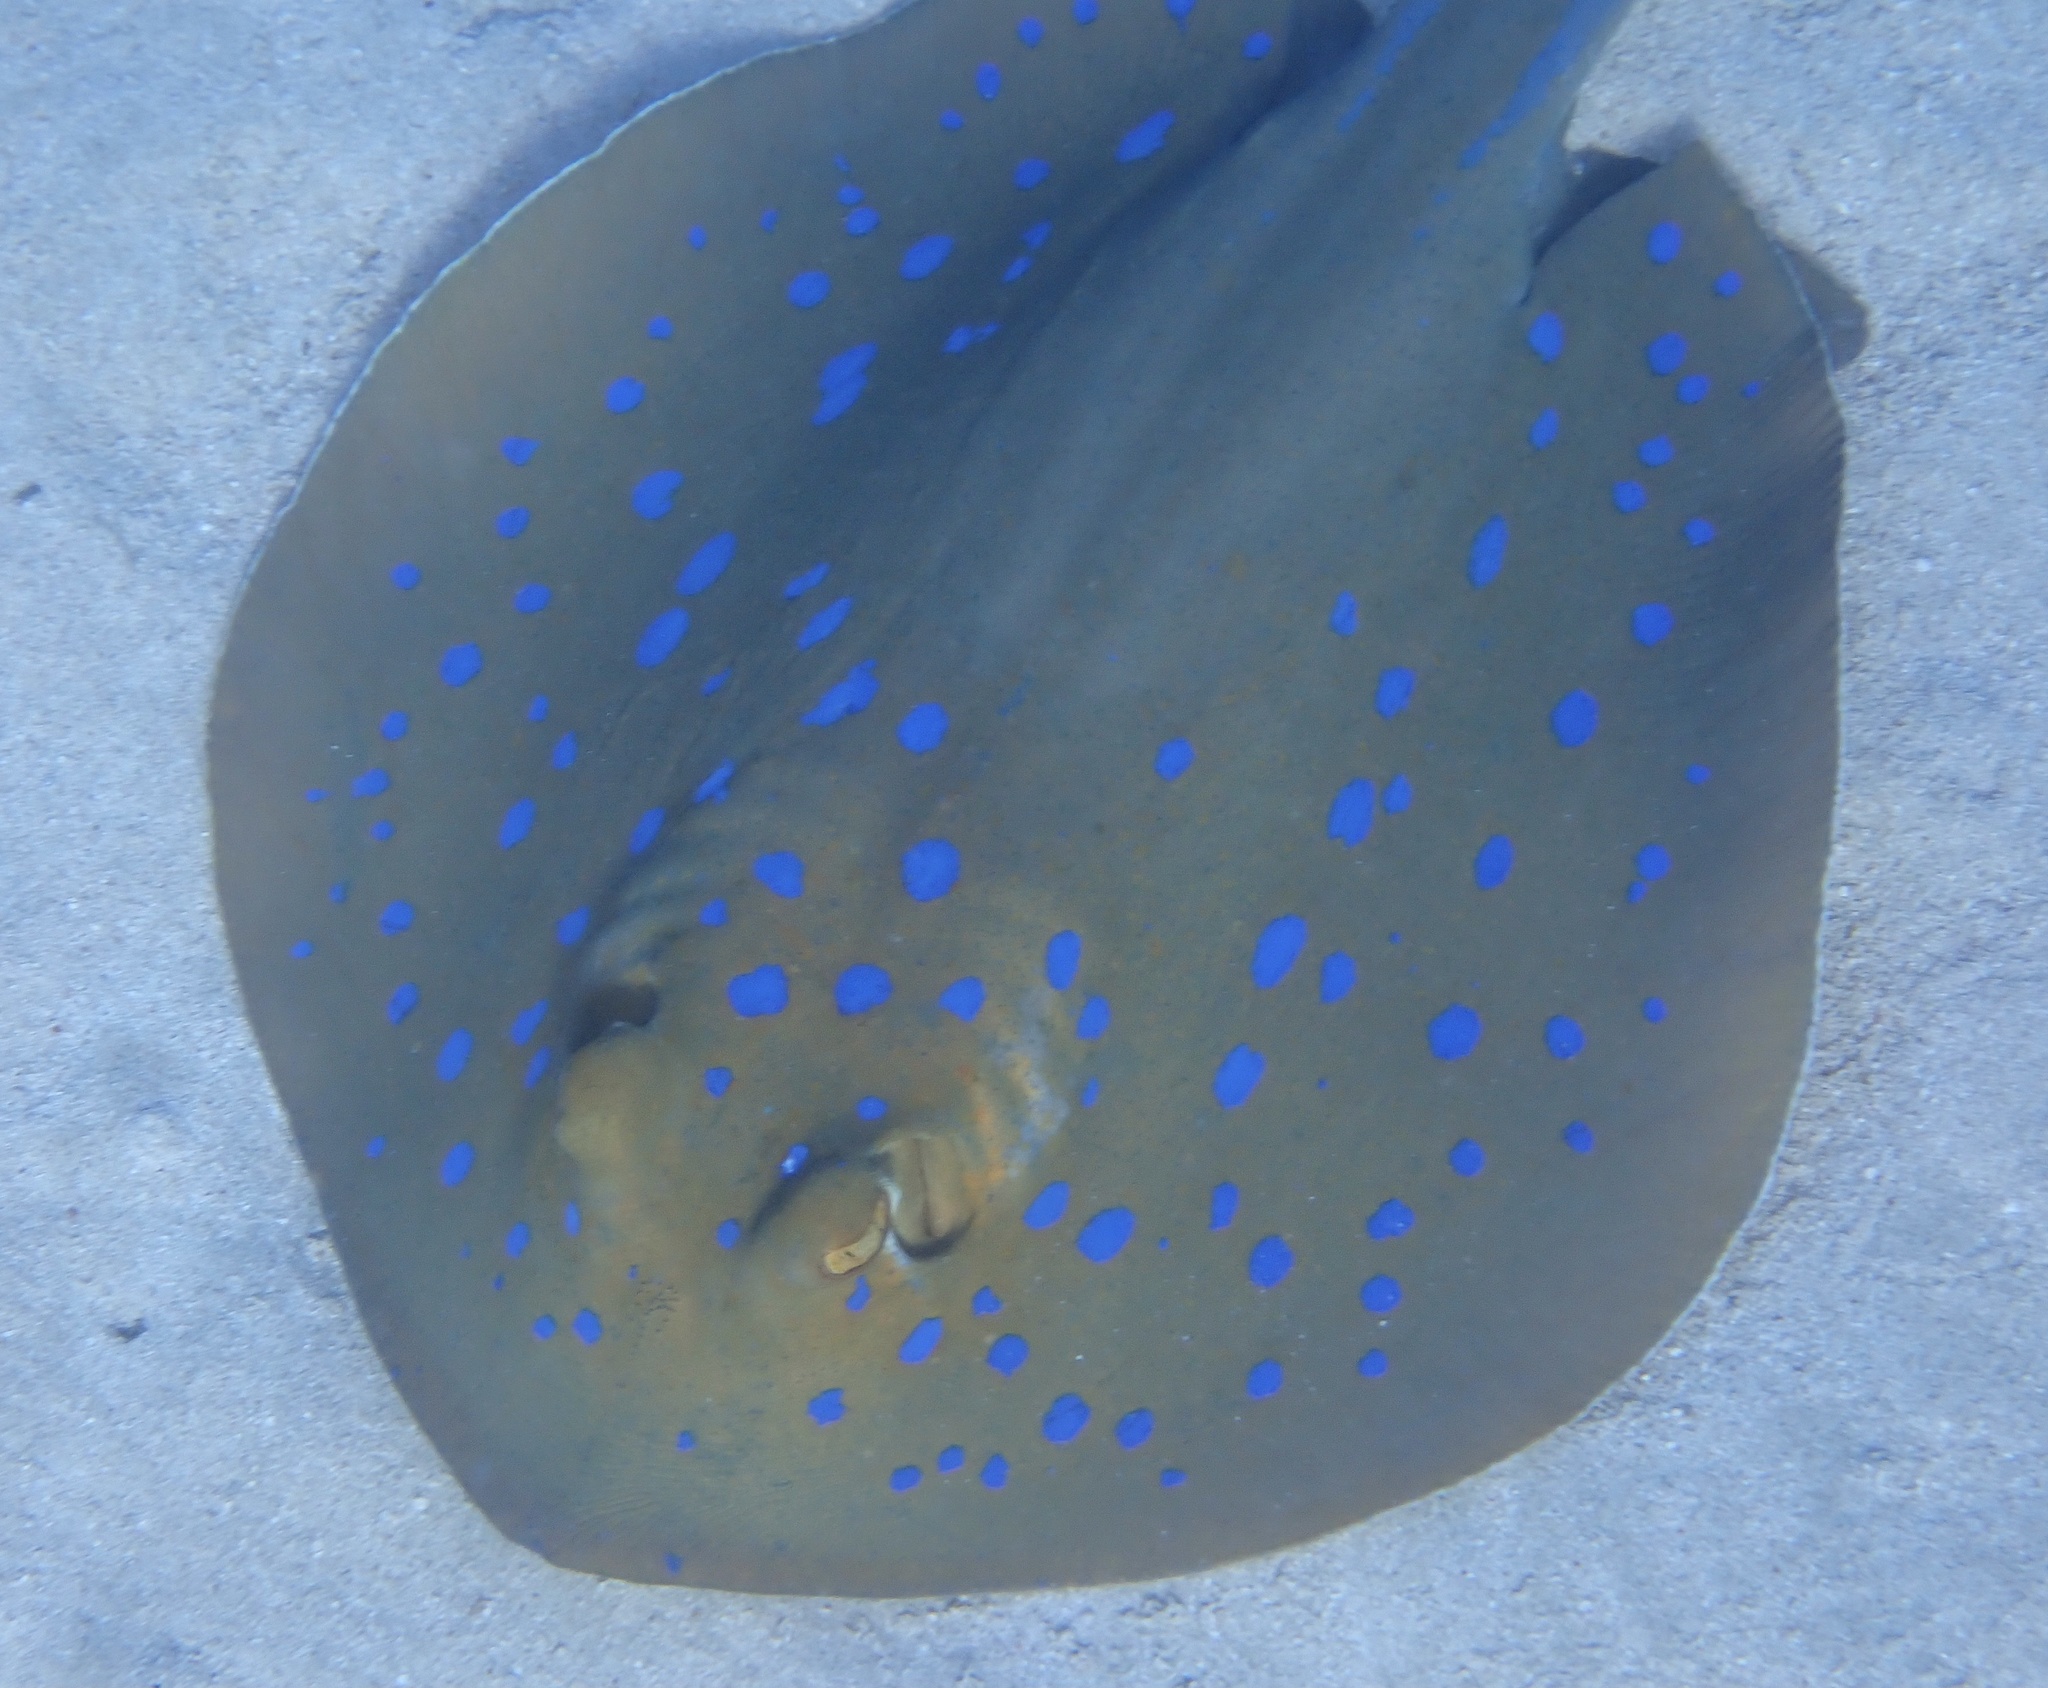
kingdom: Animalia
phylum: Chordata
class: Elasmobranchii
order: Myliobatiformes
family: Dasyatidae
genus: Taeniura
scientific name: Taeniura lymma
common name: Bluespotted ribbontail ray
